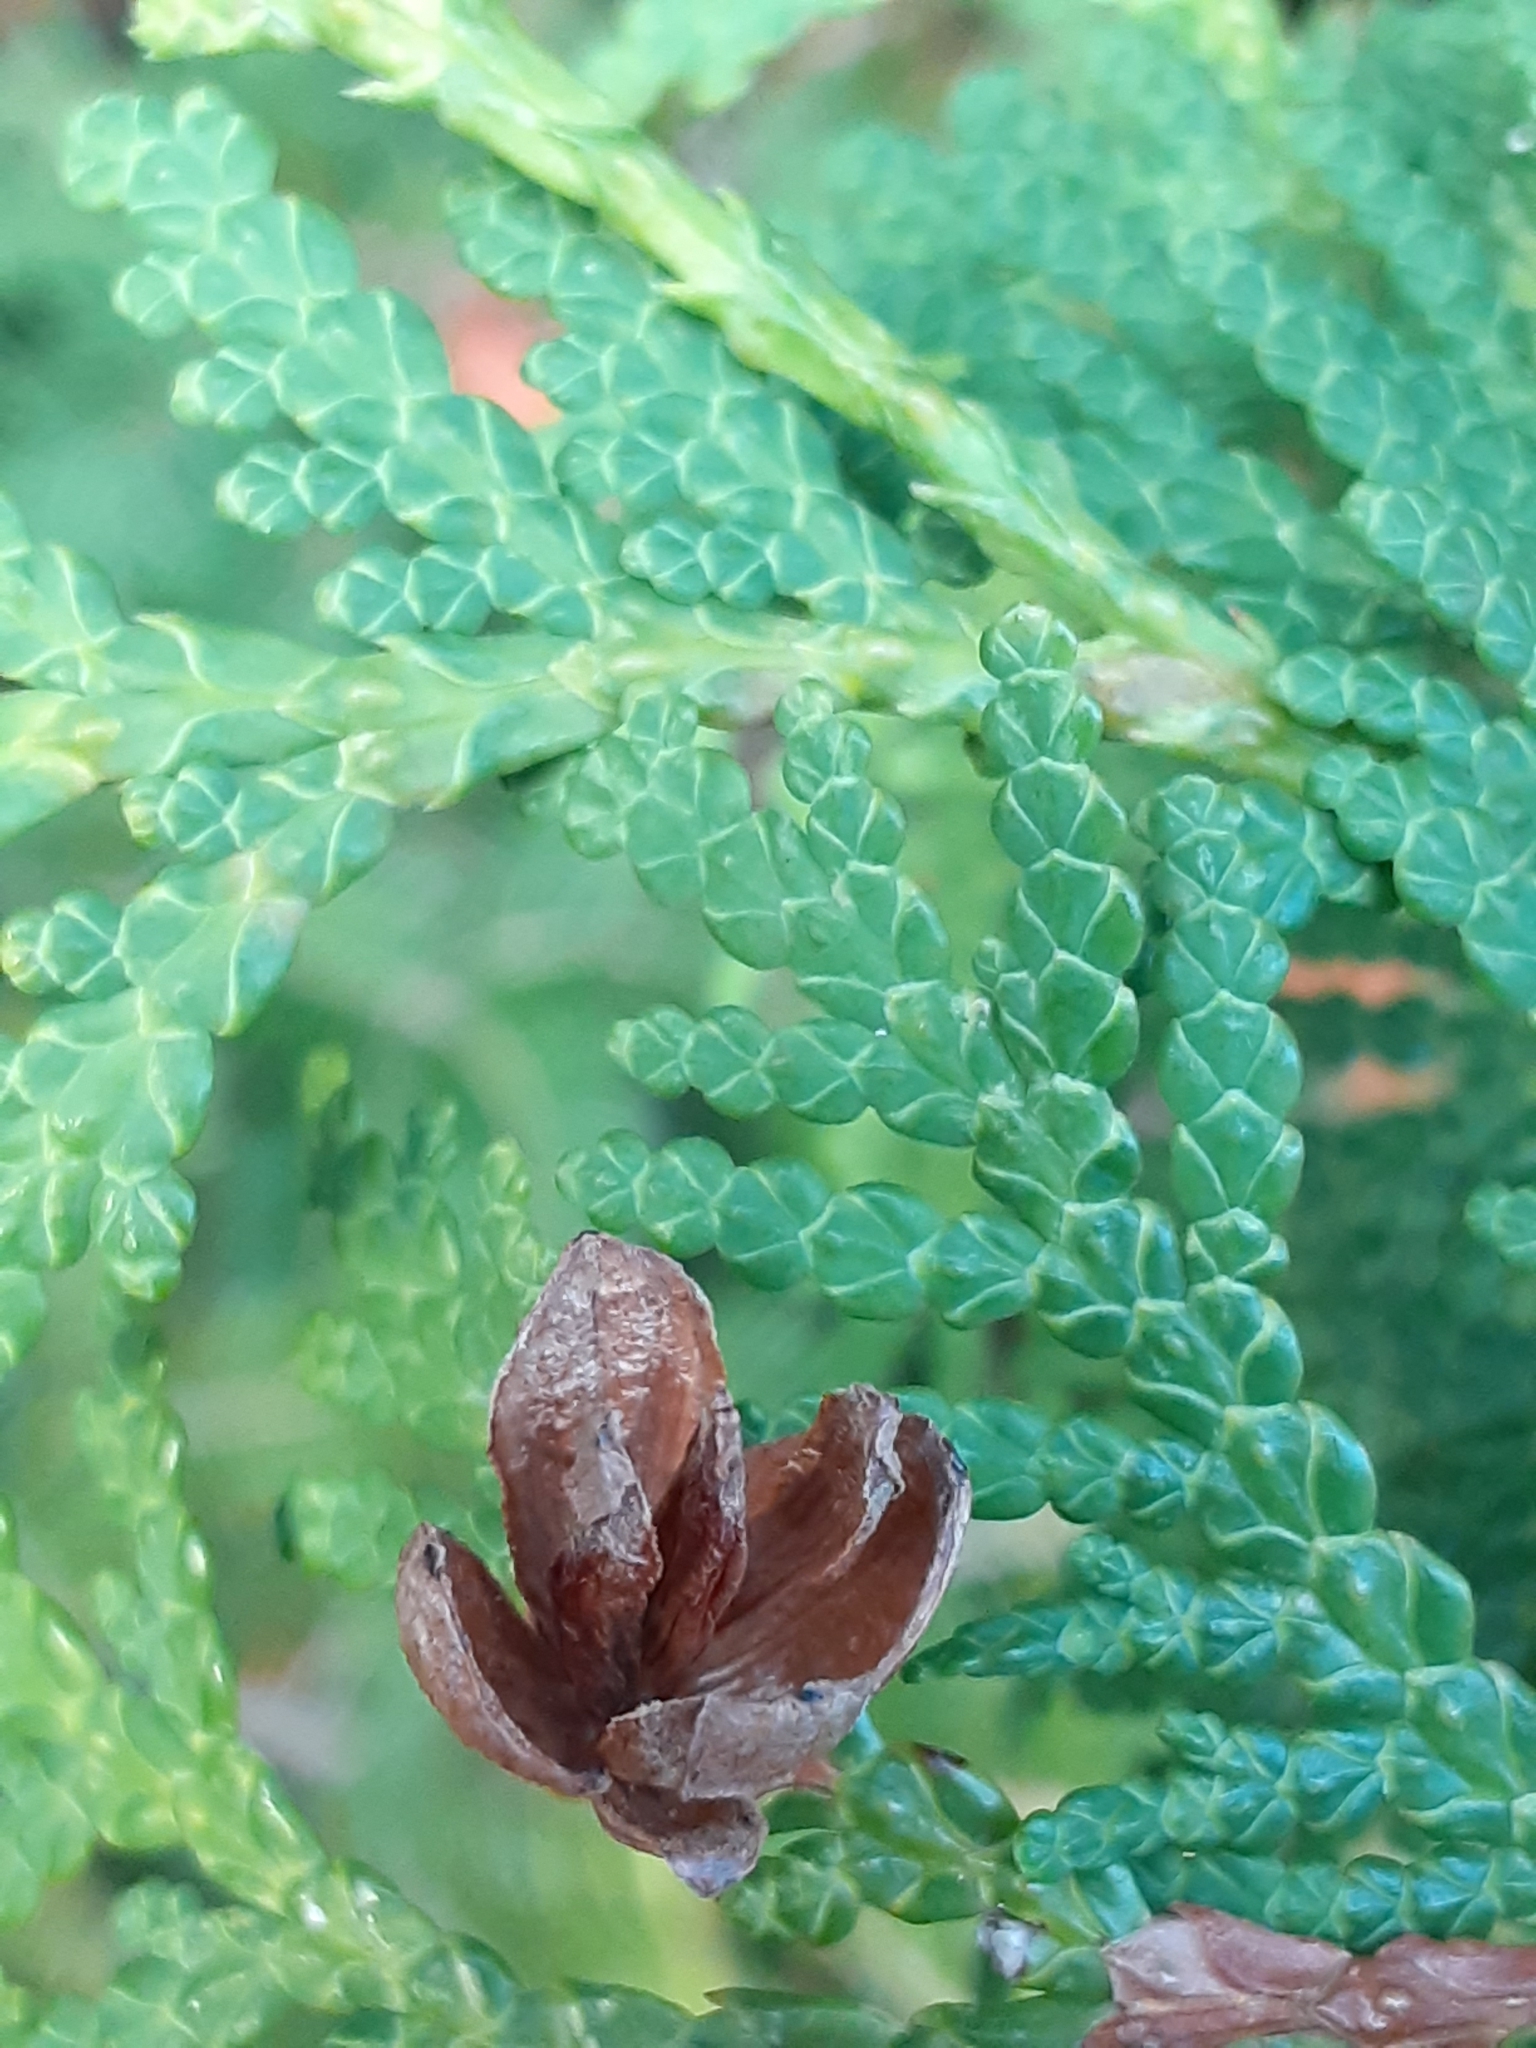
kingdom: Plantae
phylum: Tracheophyta
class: Pinopsida
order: Pinales
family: Cupressaceae
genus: Thuja
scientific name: Thuja occidentalis
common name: Northern white-cedar
